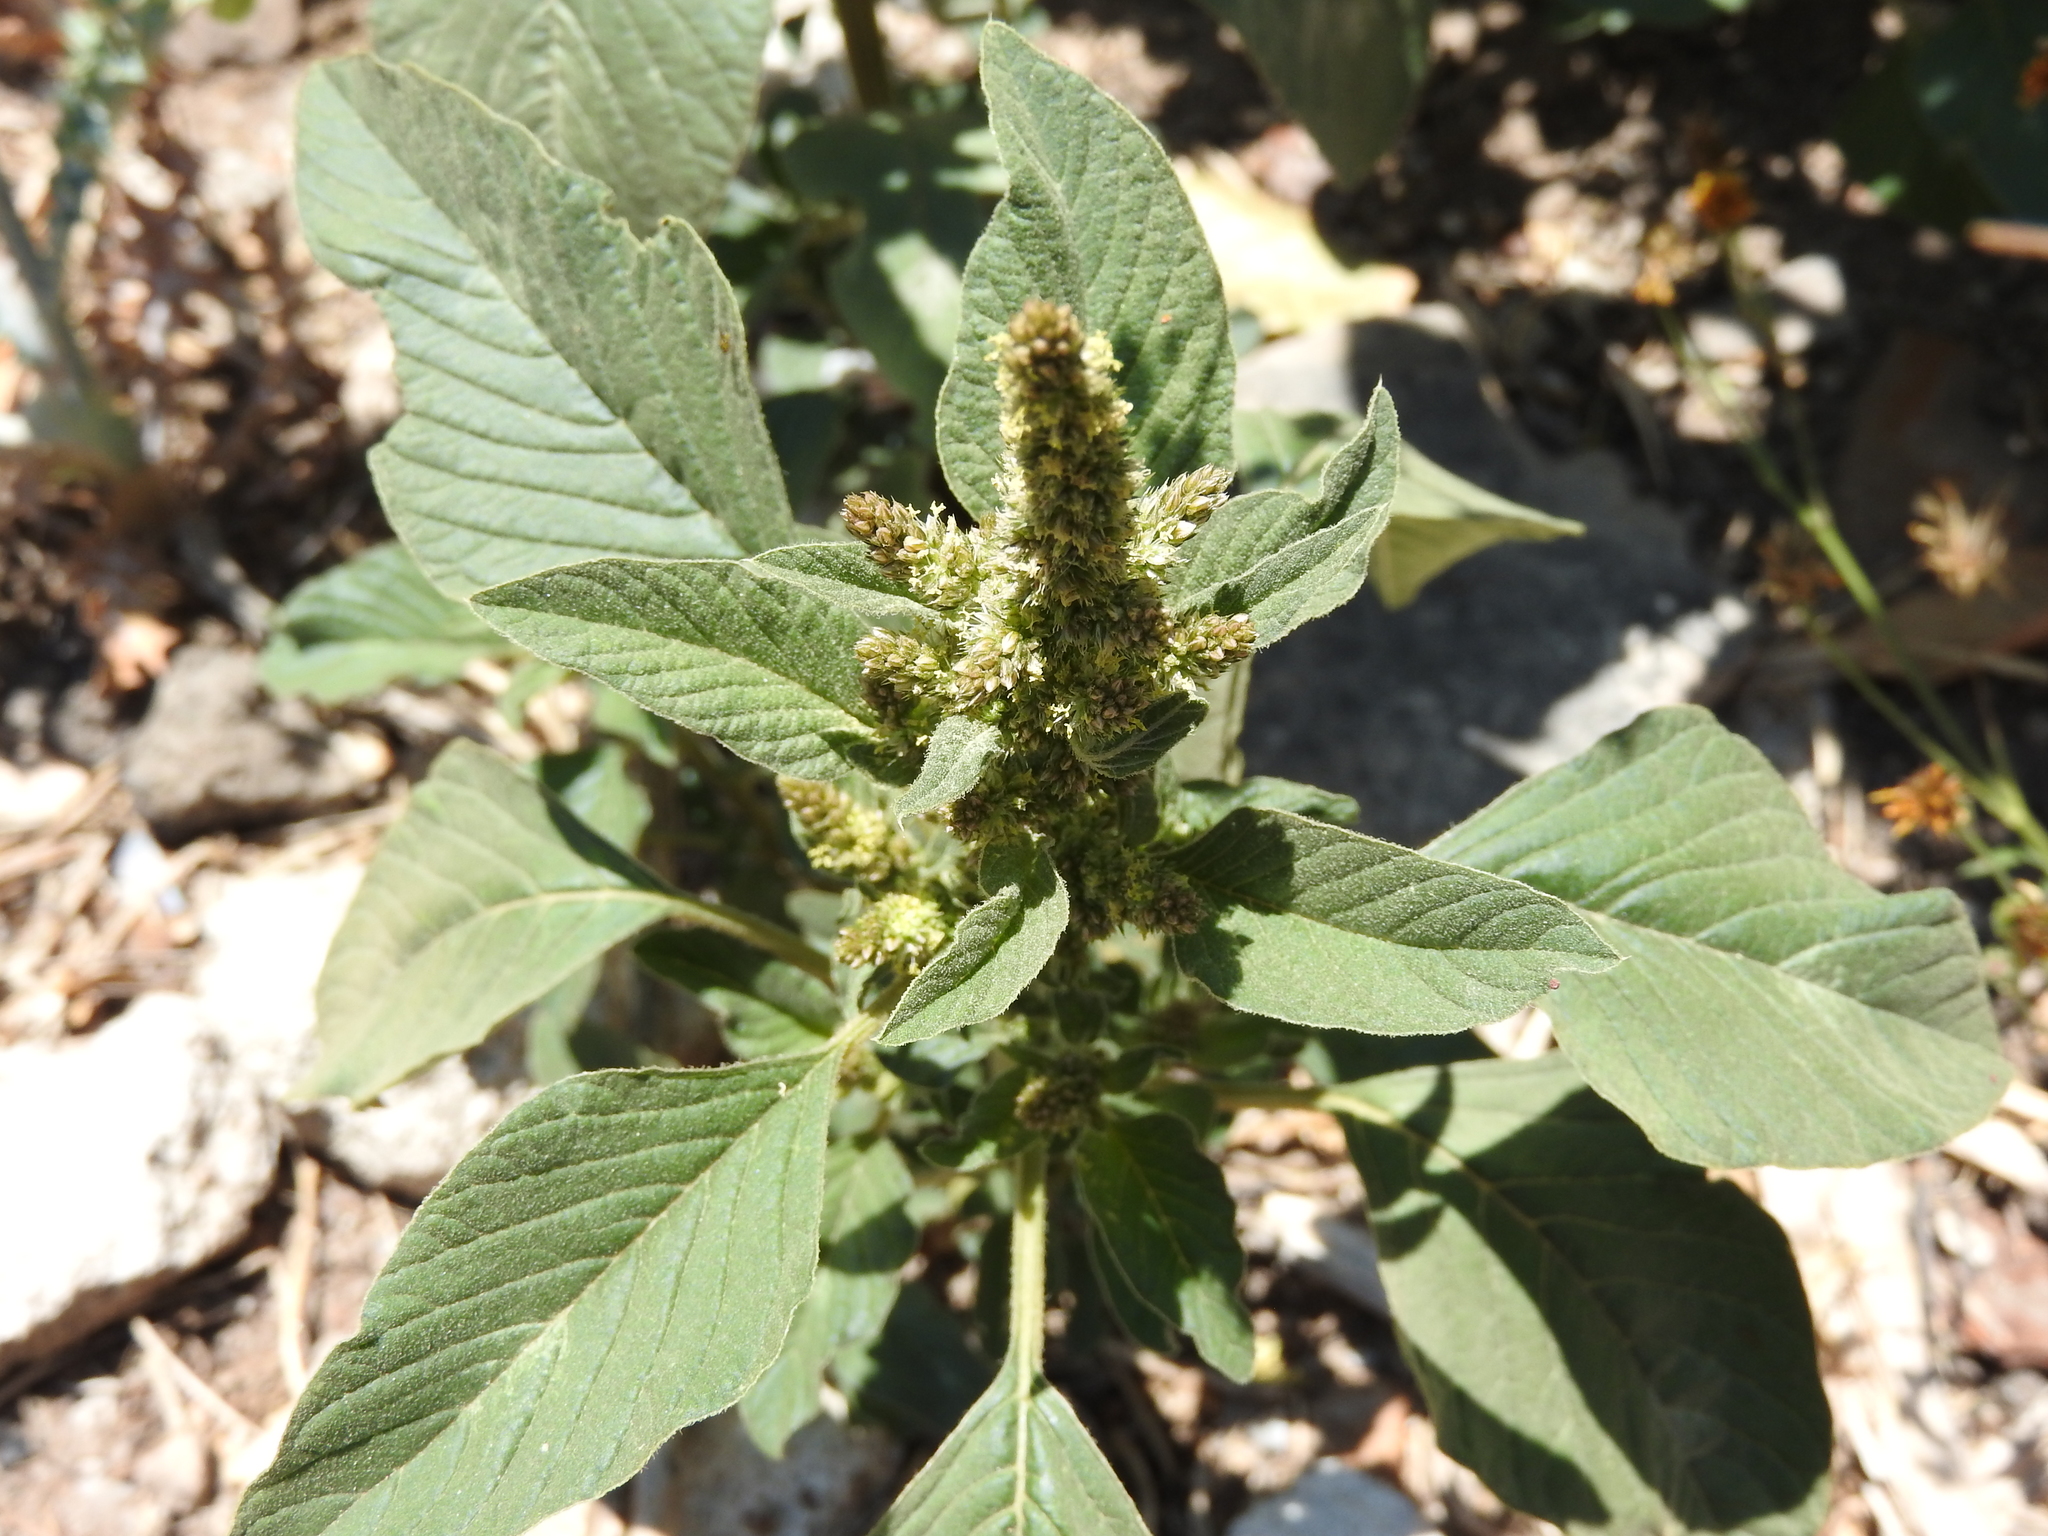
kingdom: Plantae
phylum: Tracheophyta
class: Magnoliopsida
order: Caryophyllales
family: Amaranthaceae
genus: Amaranthus
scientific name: Amaranthus hybridus
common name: Green amaranth
